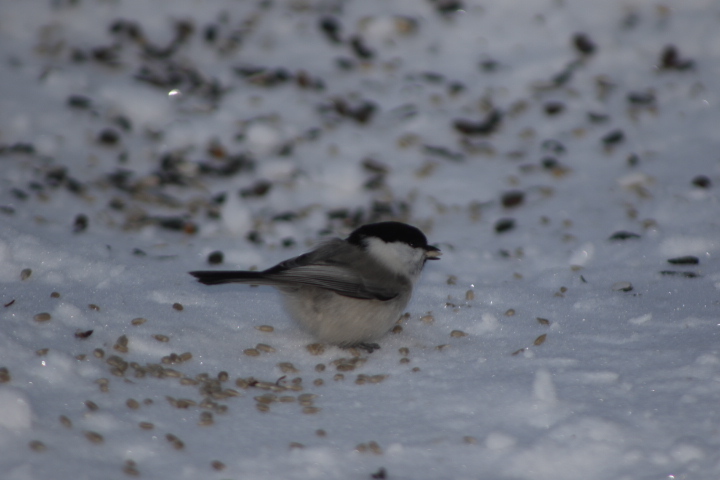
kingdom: Animalia
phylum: Chordata
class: Aves
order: Passeriformes
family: Paridae
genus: Poecile
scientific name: Poecile montanus
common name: Willow tit
